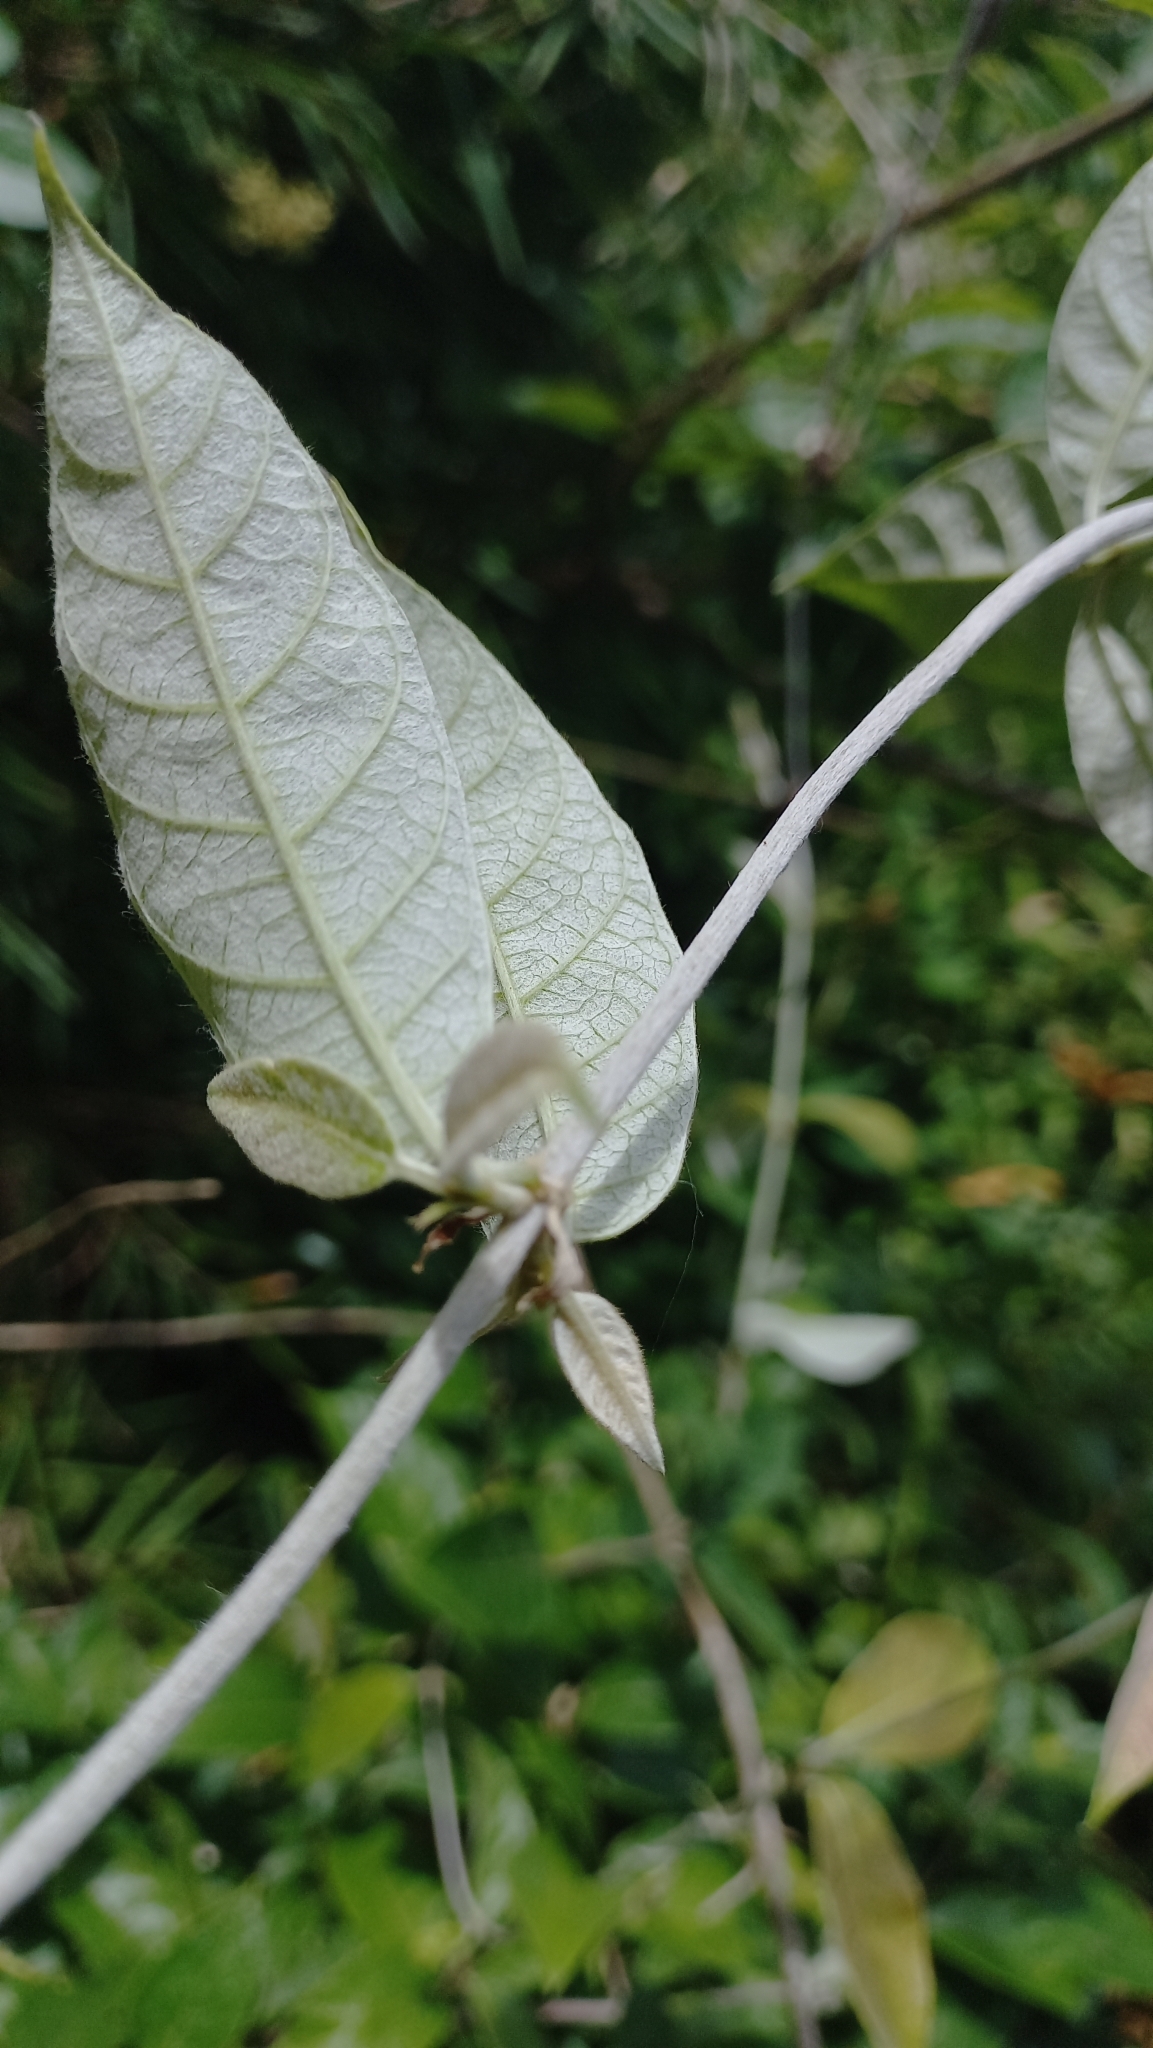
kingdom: Plantae
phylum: Tracheophyta
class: Magnoliopsida
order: Malpighiales
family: Trigoniaceae
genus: Trigonia
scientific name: Trigonia nivea
